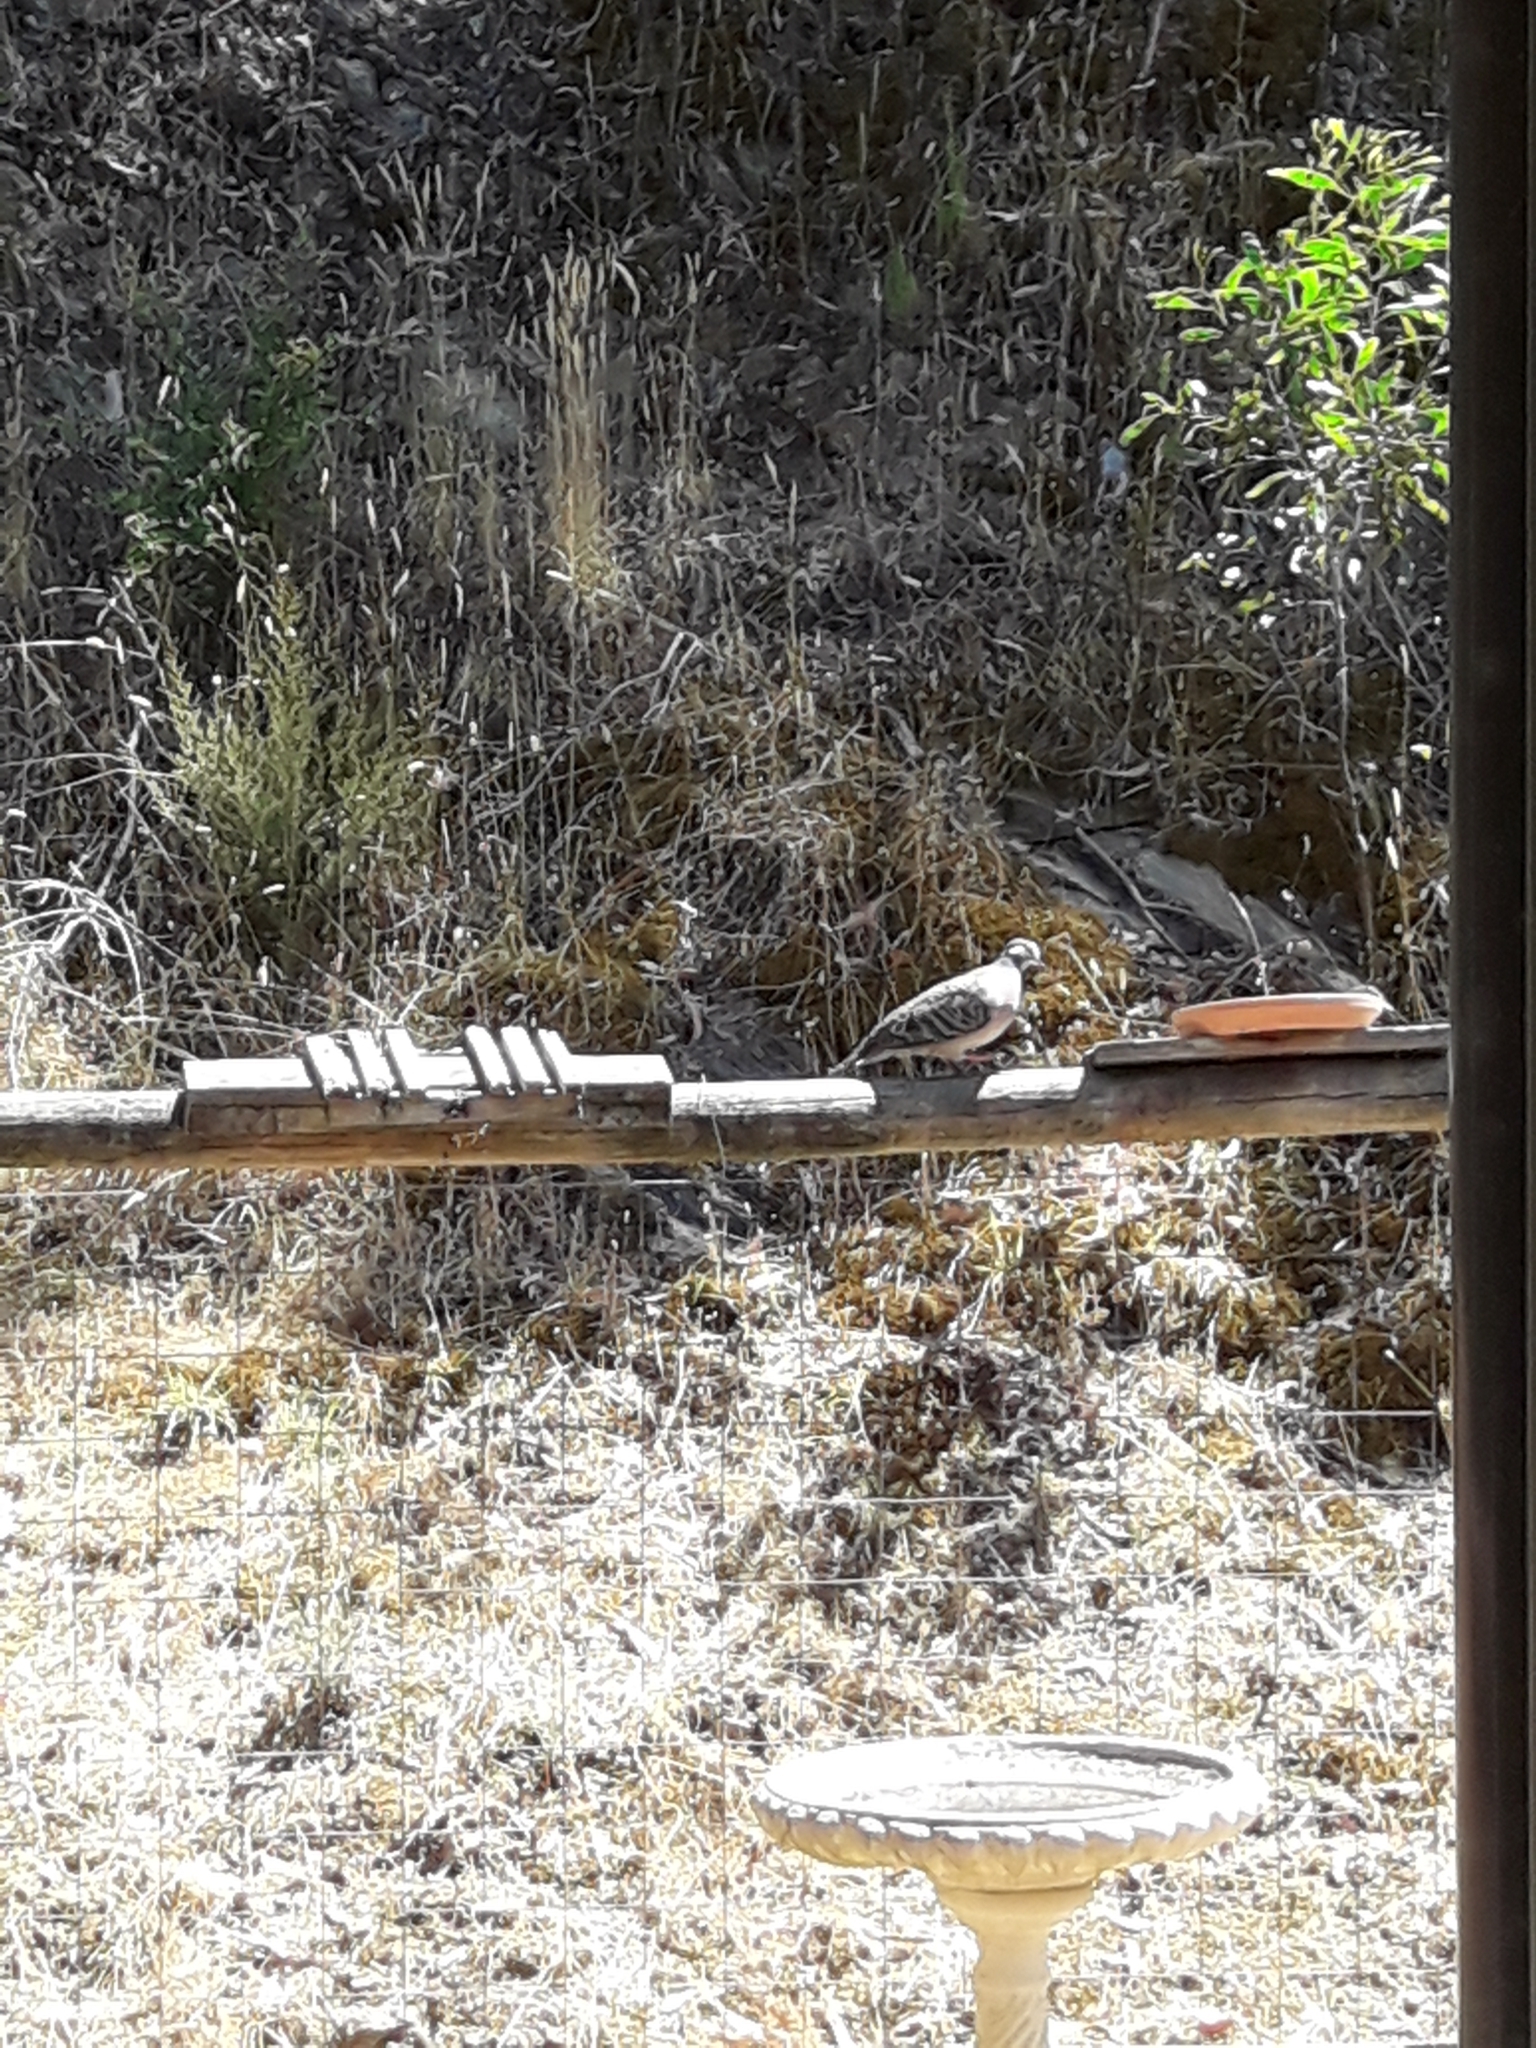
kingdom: Animalia
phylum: Chordata
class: Aves
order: Columbiformes
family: Columbidae
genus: Phaps
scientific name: Phaps chalcoptera
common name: Common bronzewing
